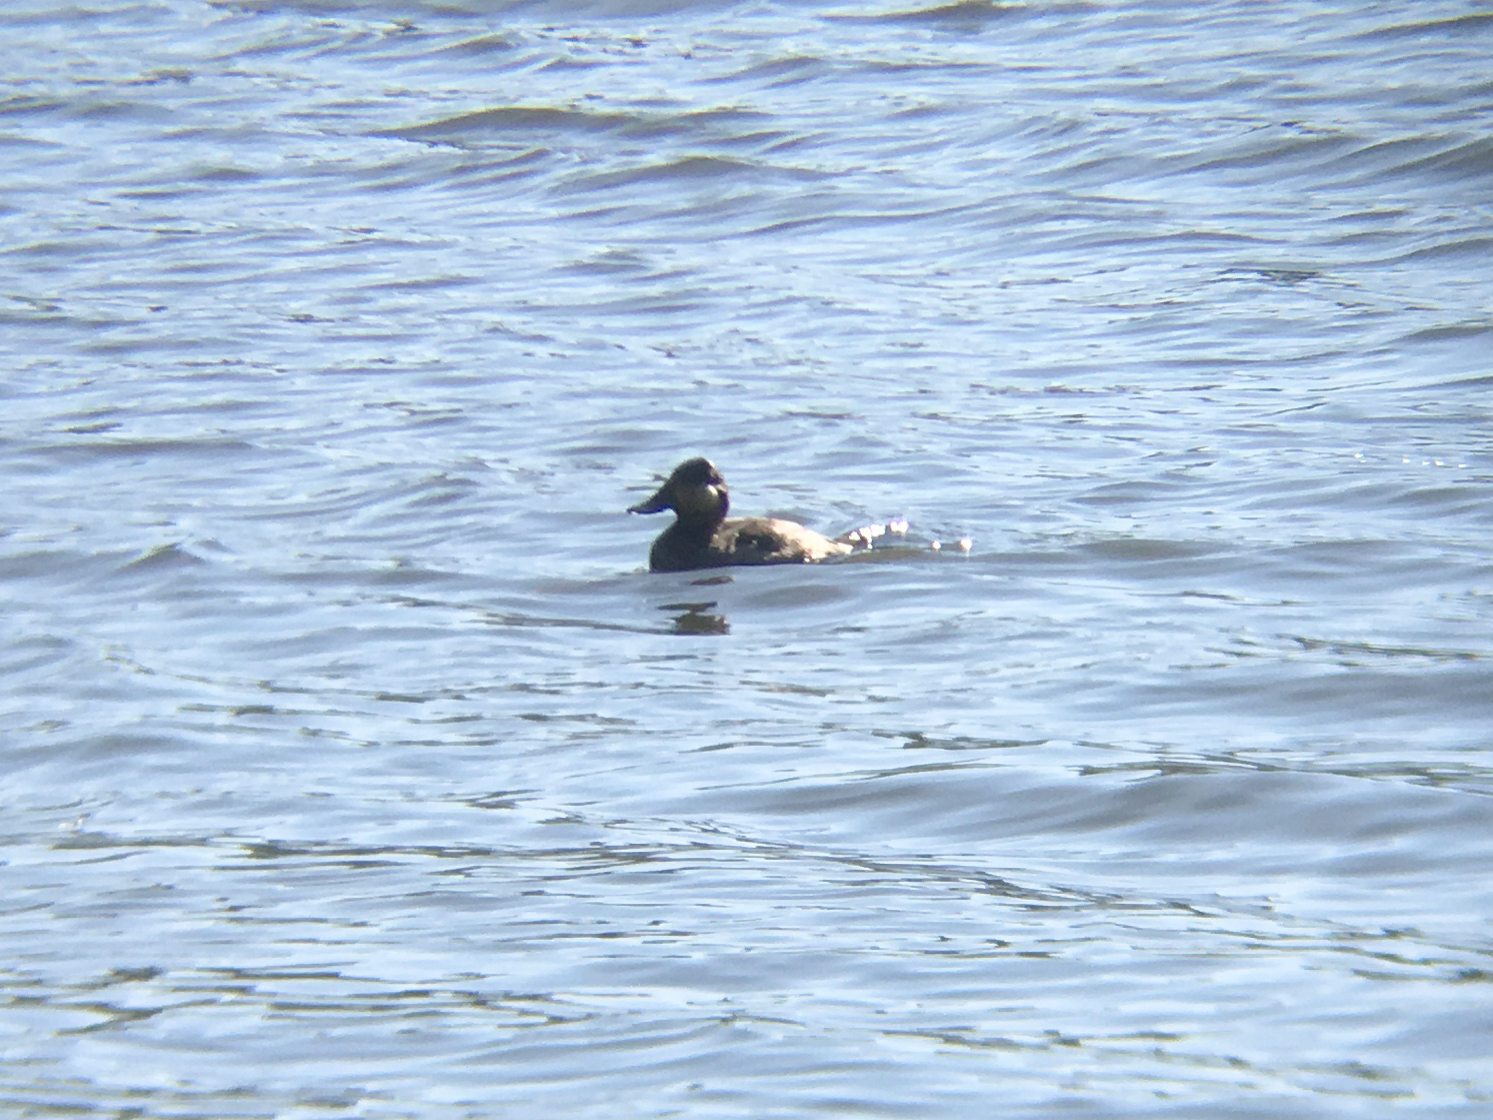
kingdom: Animalia
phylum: Chordata
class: Aves
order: Anseriformes
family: Anatidae
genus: Oxyura
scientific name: Oxyura jamaicensis
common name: Ruddy duck
